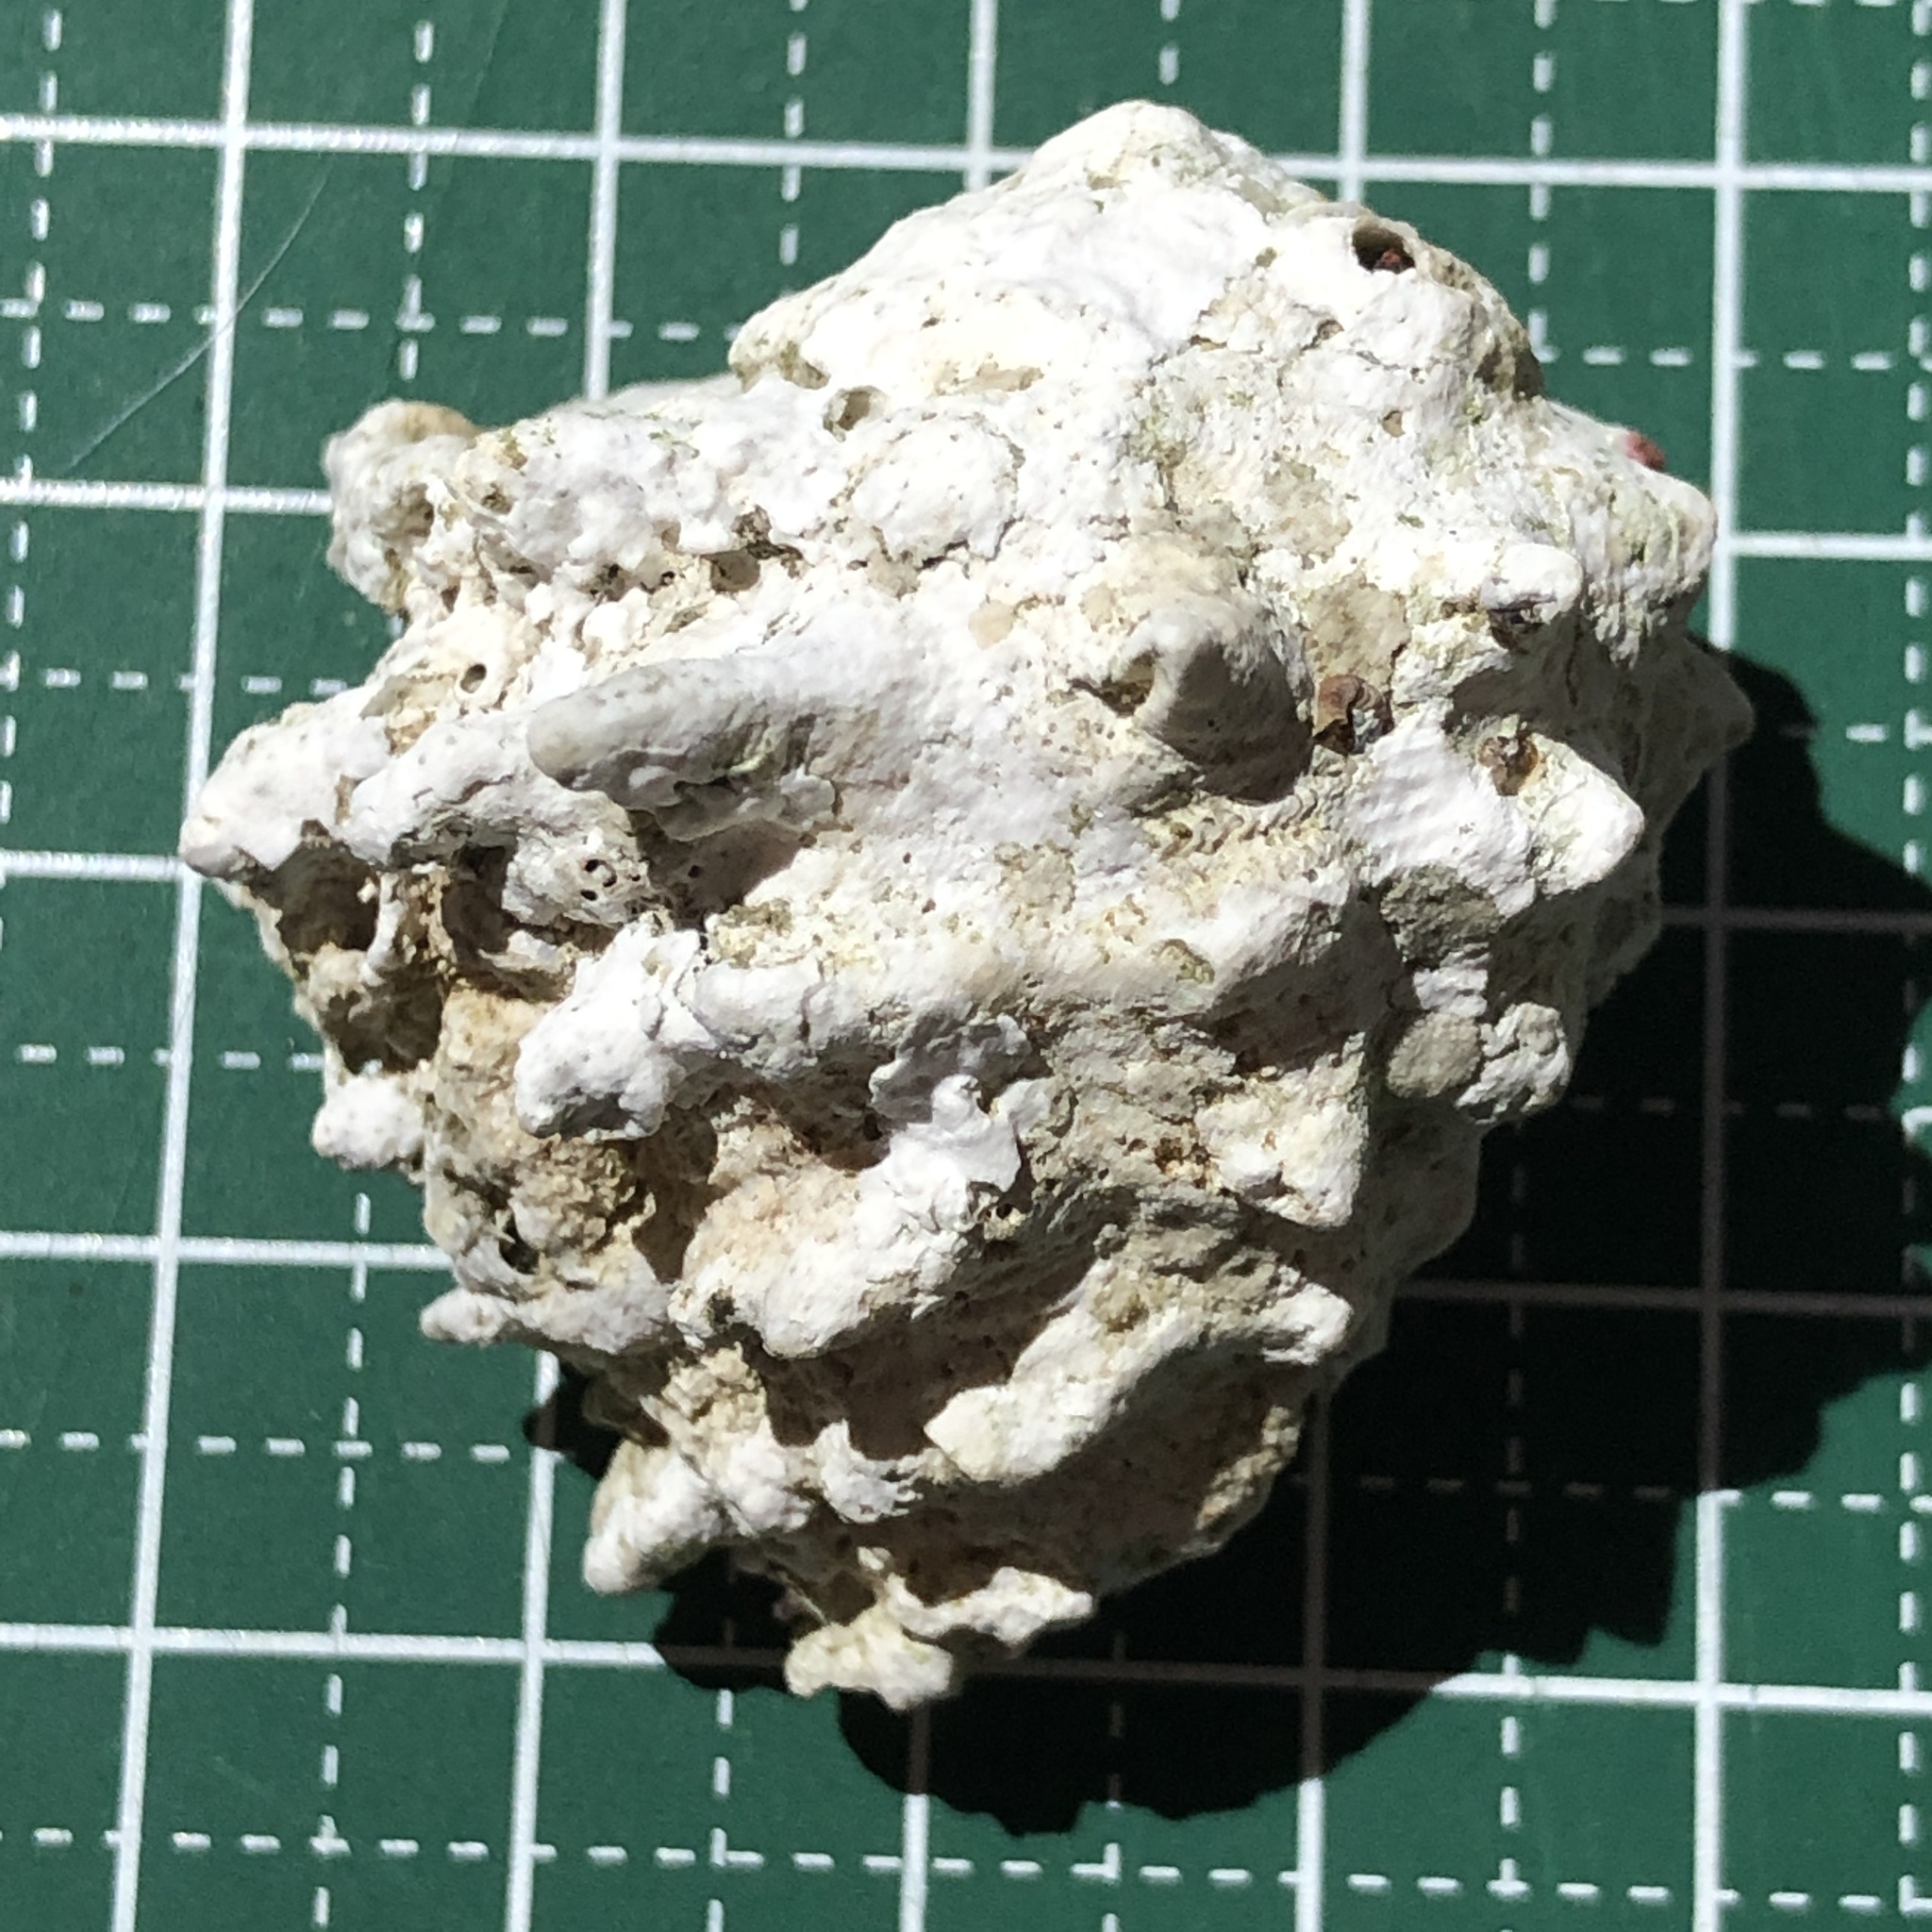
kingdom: Animalia
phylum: Mollusca
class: Gastropoda
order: Neogastropoda
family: Muricidae
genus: Drupa
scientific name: Drupa
